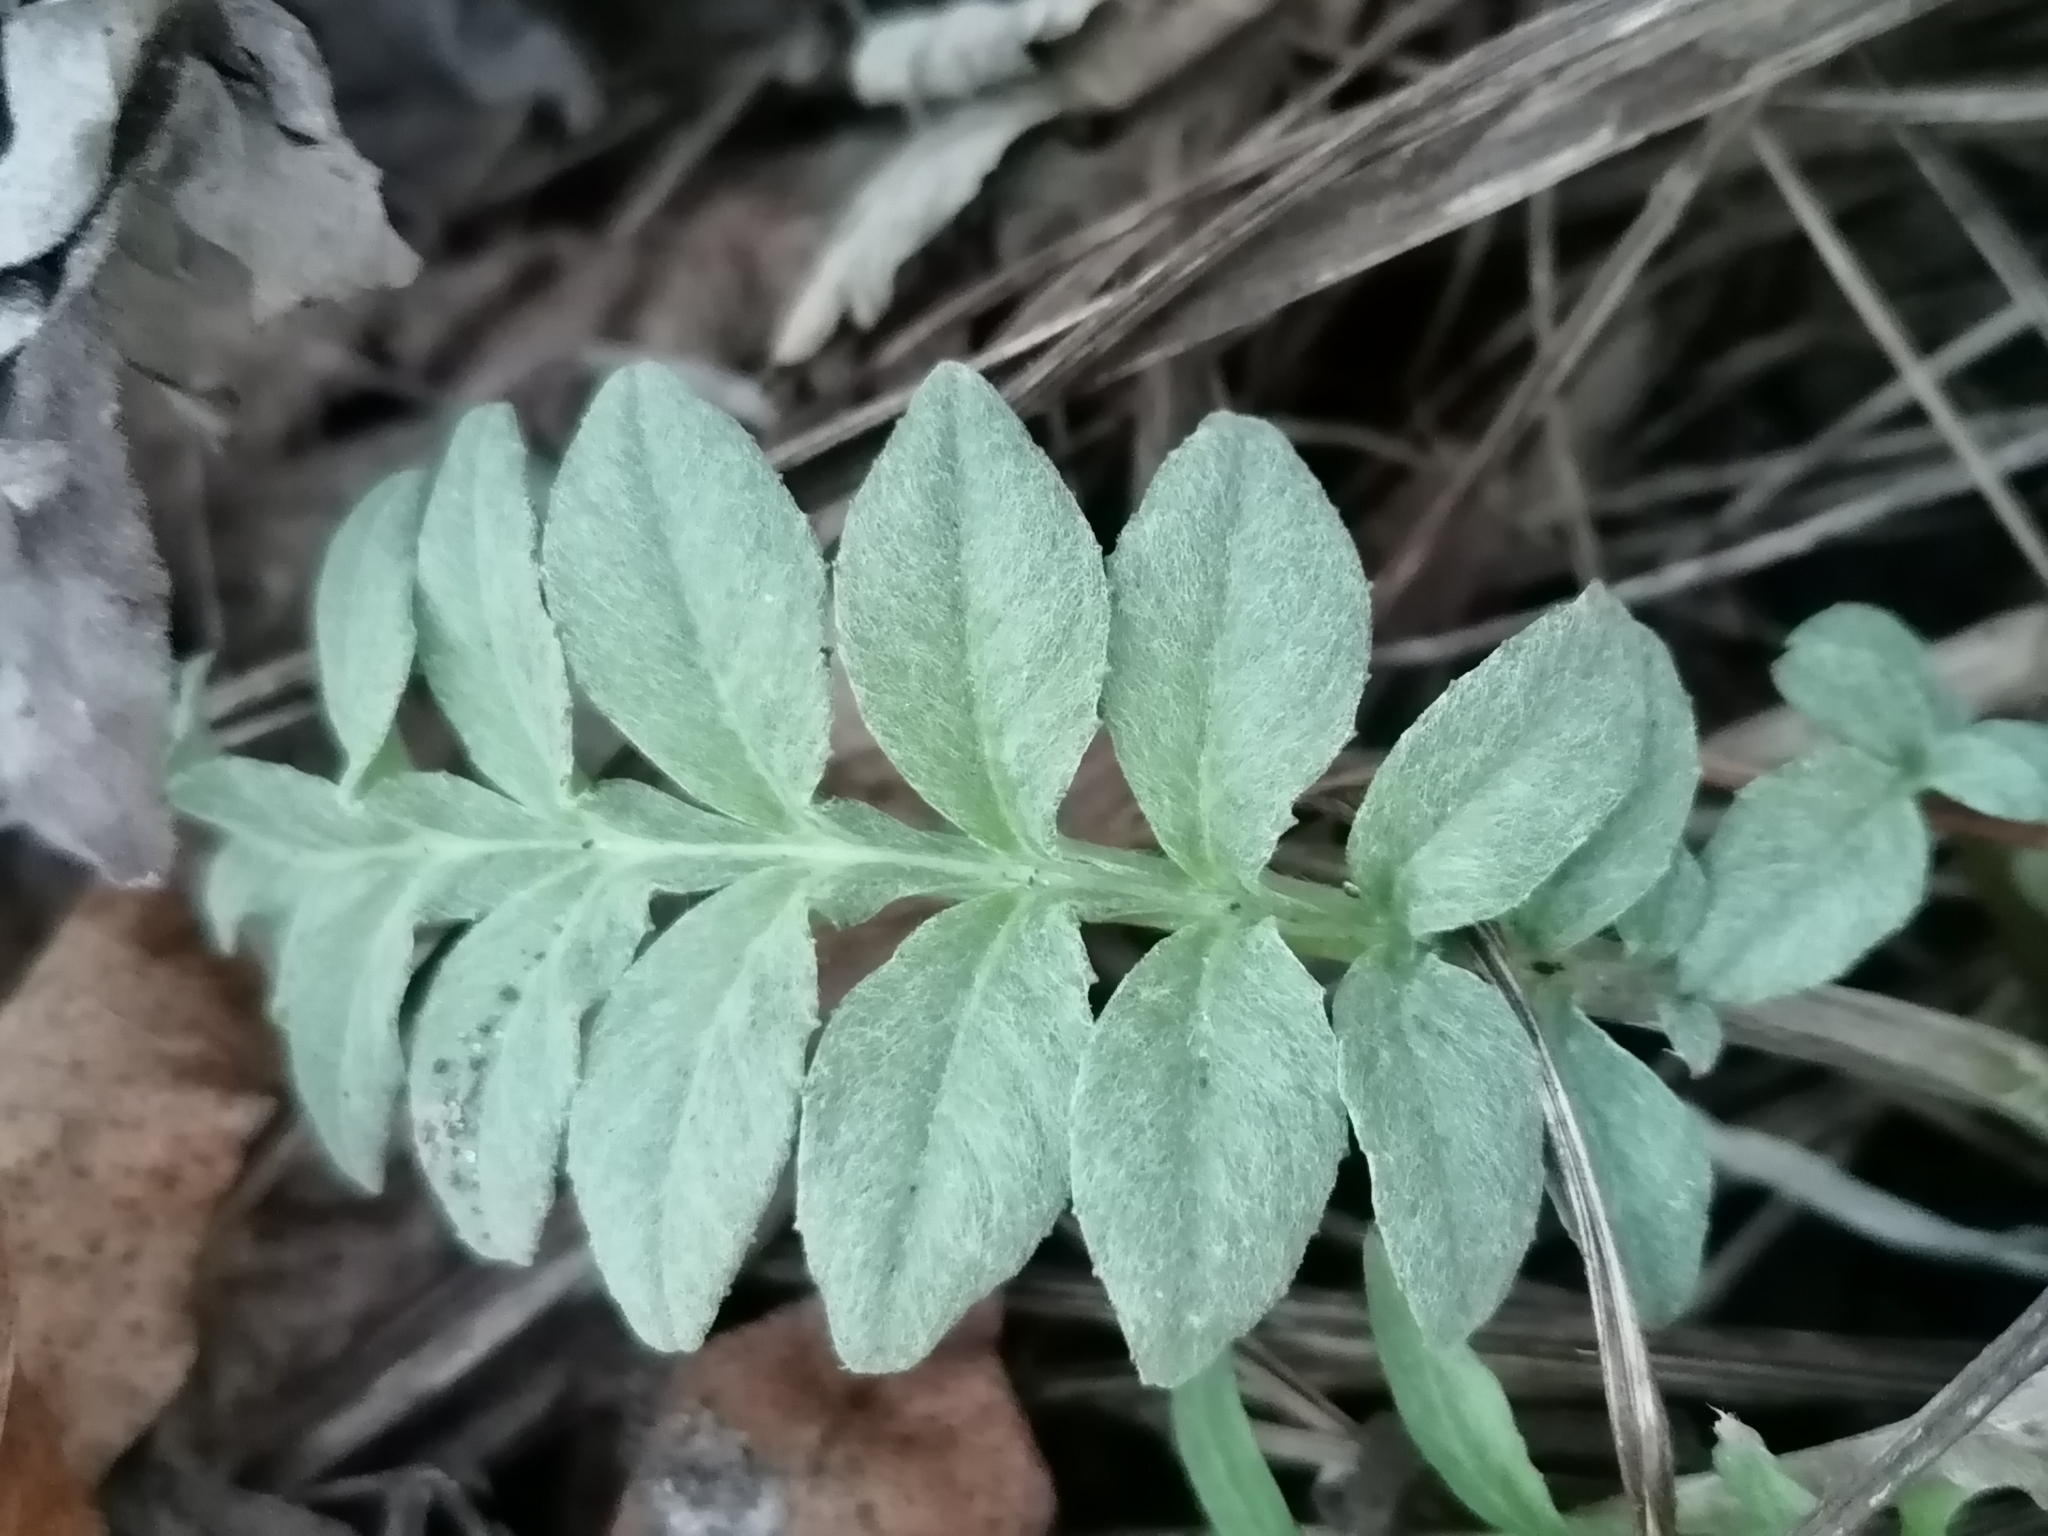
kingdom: Plantae
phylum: Tracheophyta
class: Magnoliopsida
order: Asterales
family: Asteraceae
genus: Psephellus
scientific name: Psephellus dealbatus
